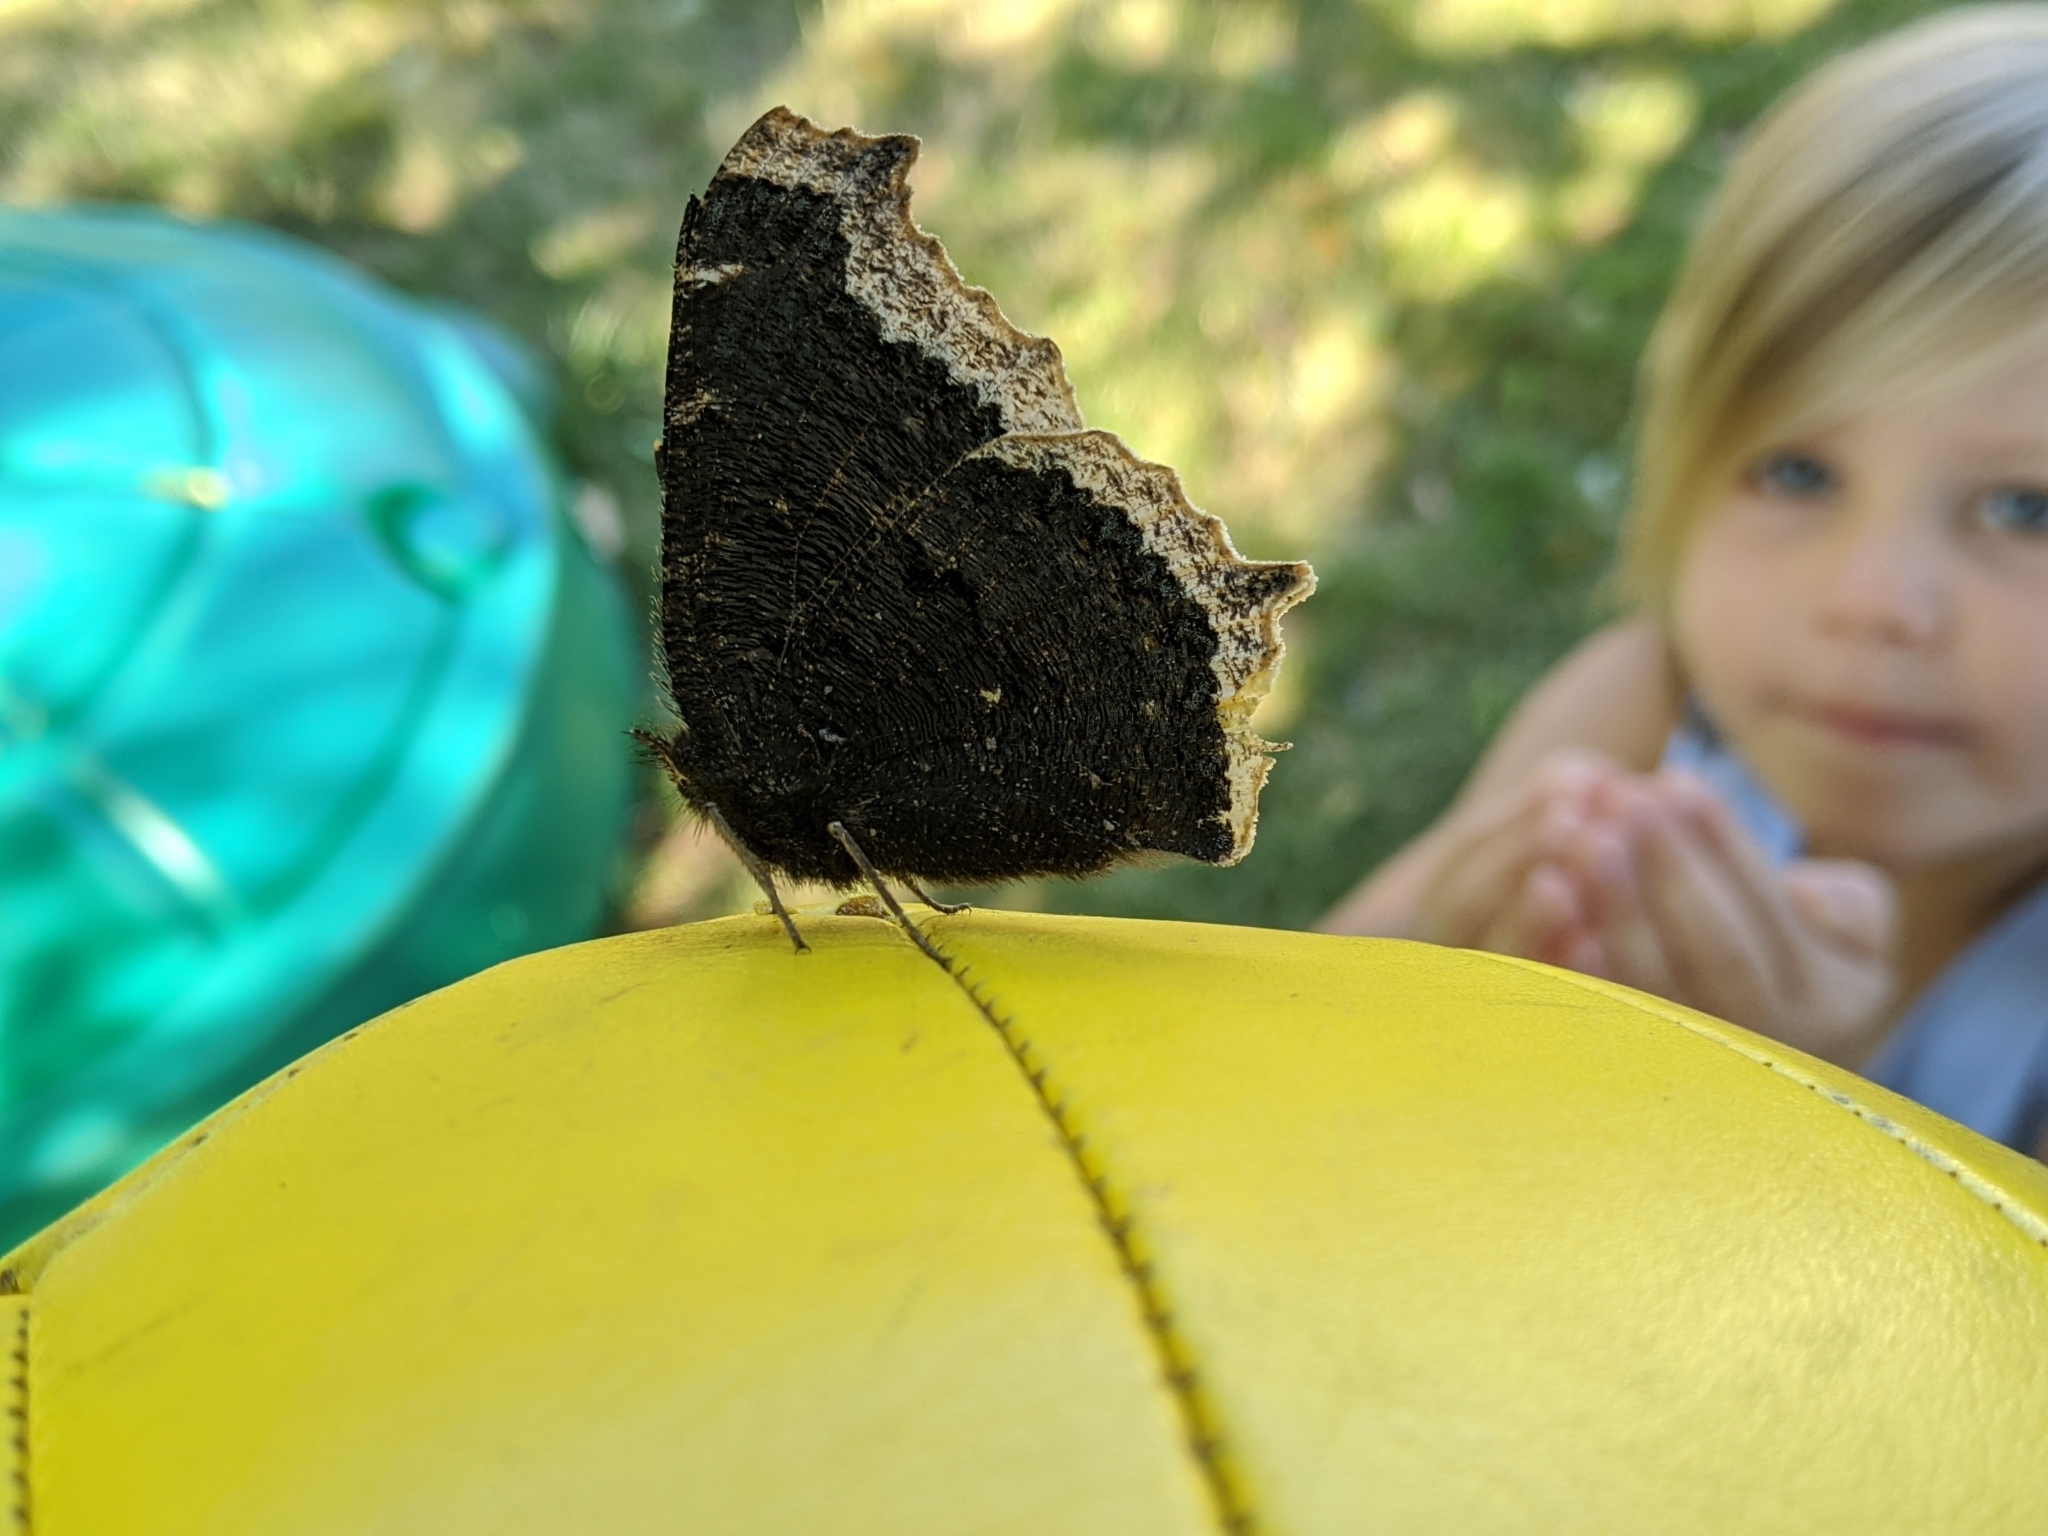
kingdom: Animalia
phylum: Arthropoda
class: Insecta
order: Lepidoptera
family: Nymphalidae
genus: Nymphalis
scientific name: Nymphalis antiopa
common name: Camberwell beauty
